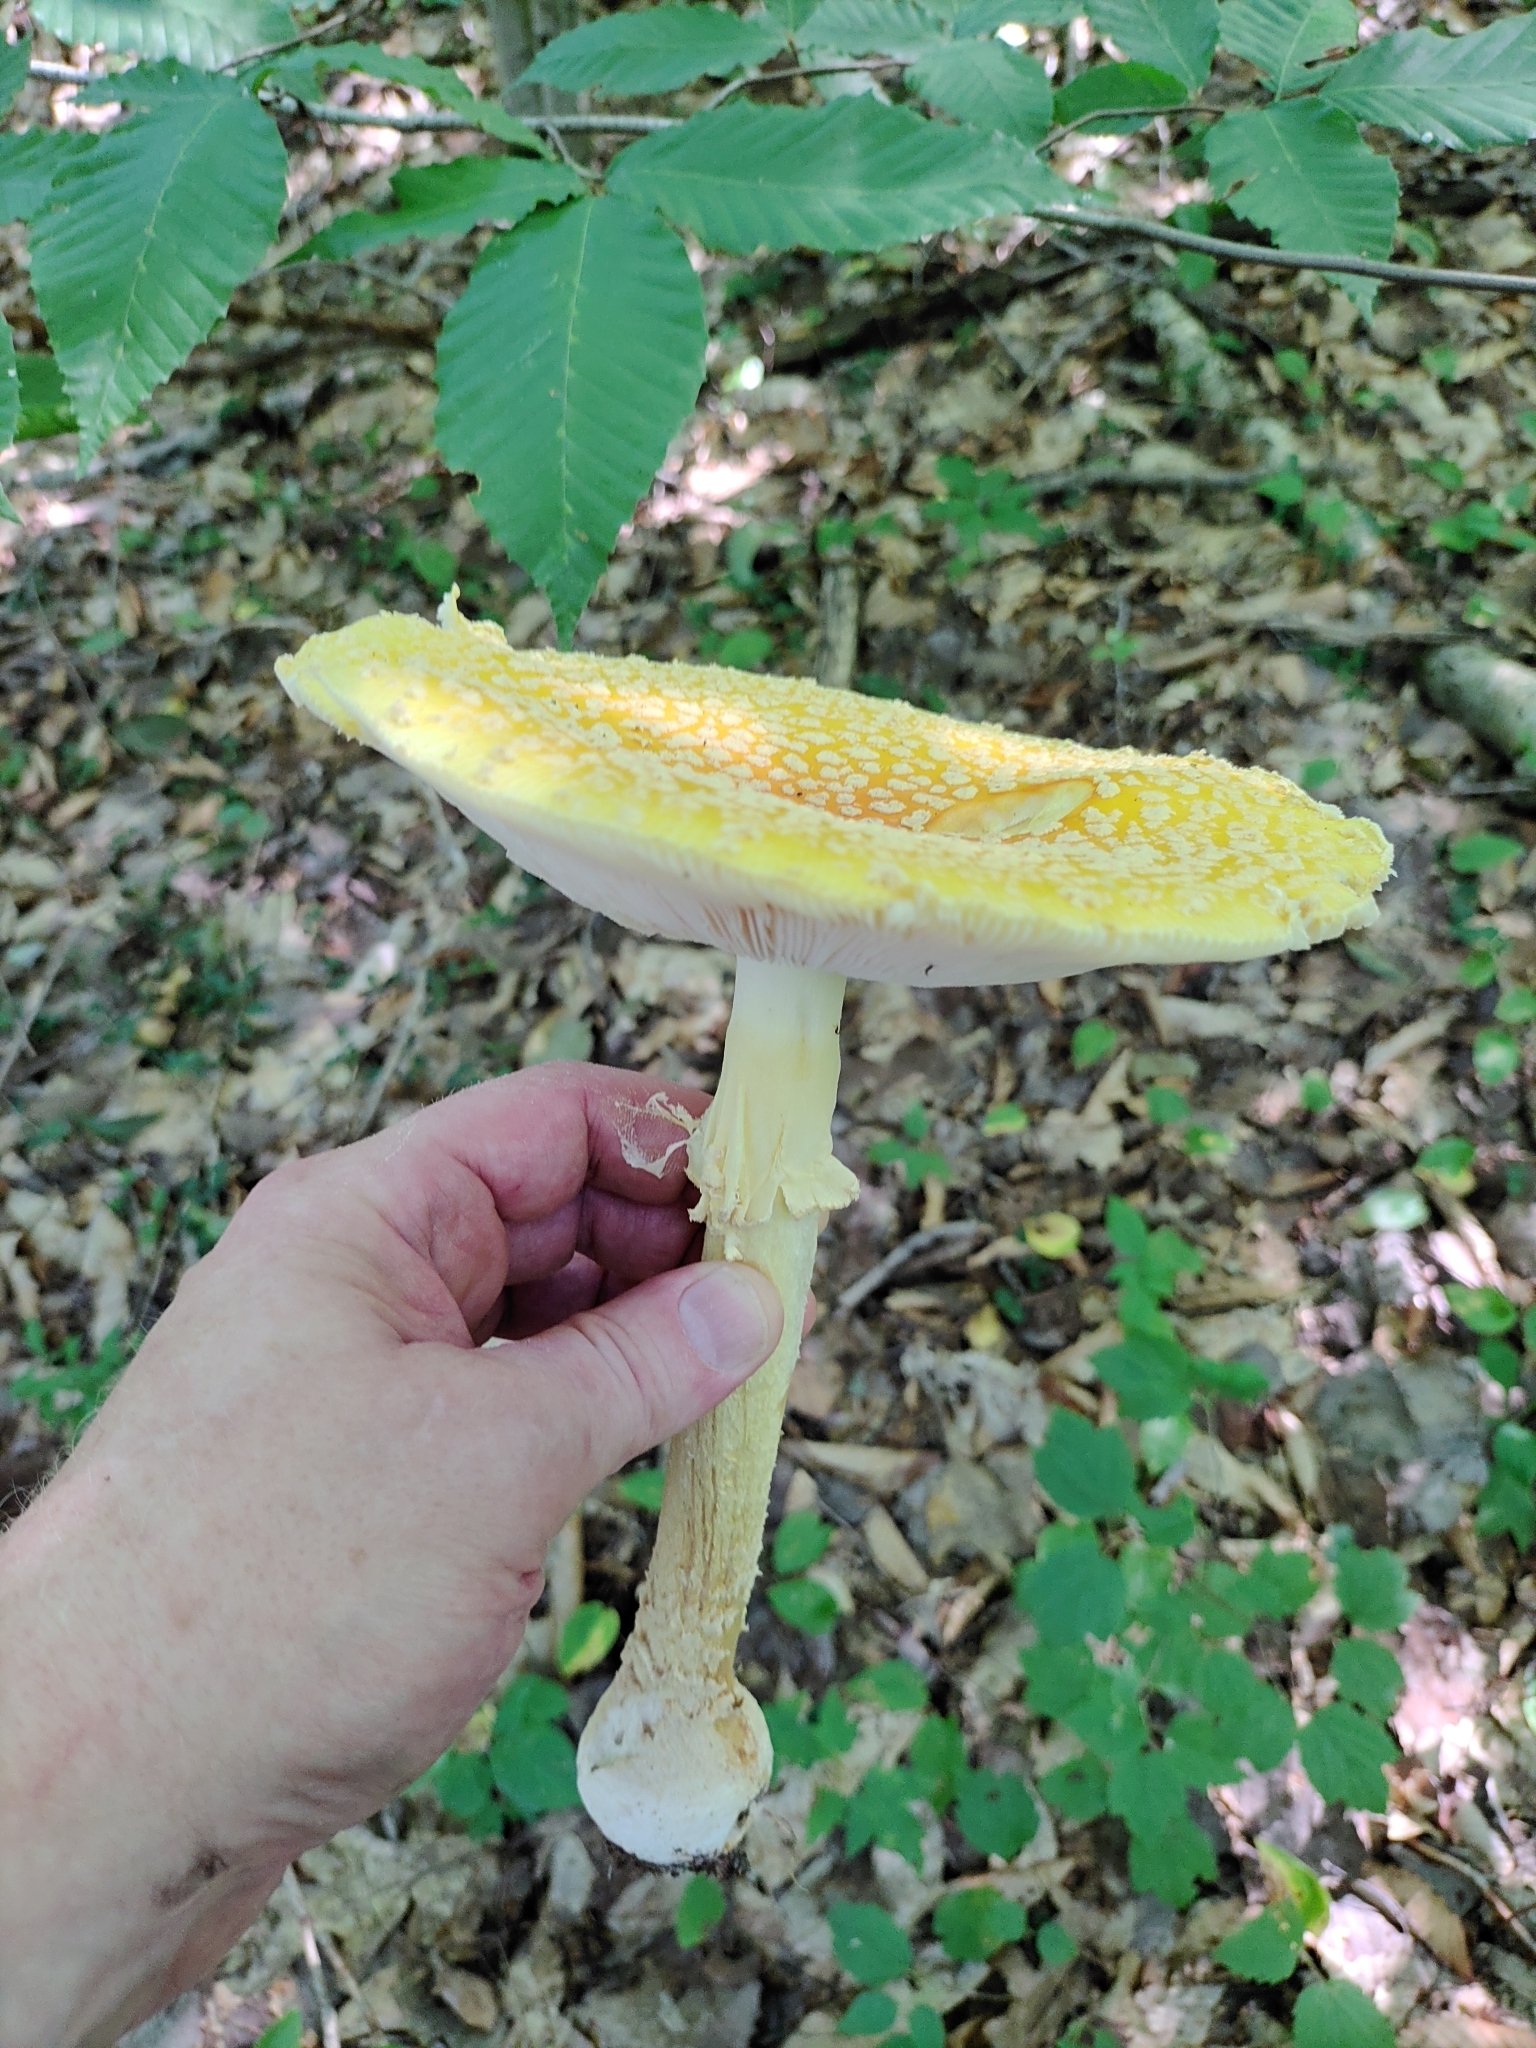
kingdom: Fungi
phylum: Basidiomycota
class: Agaricomycetes
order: Agaricales
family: Amanitaceae
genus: Amanita
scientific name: Amanita muscaria
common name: Fly agaric
